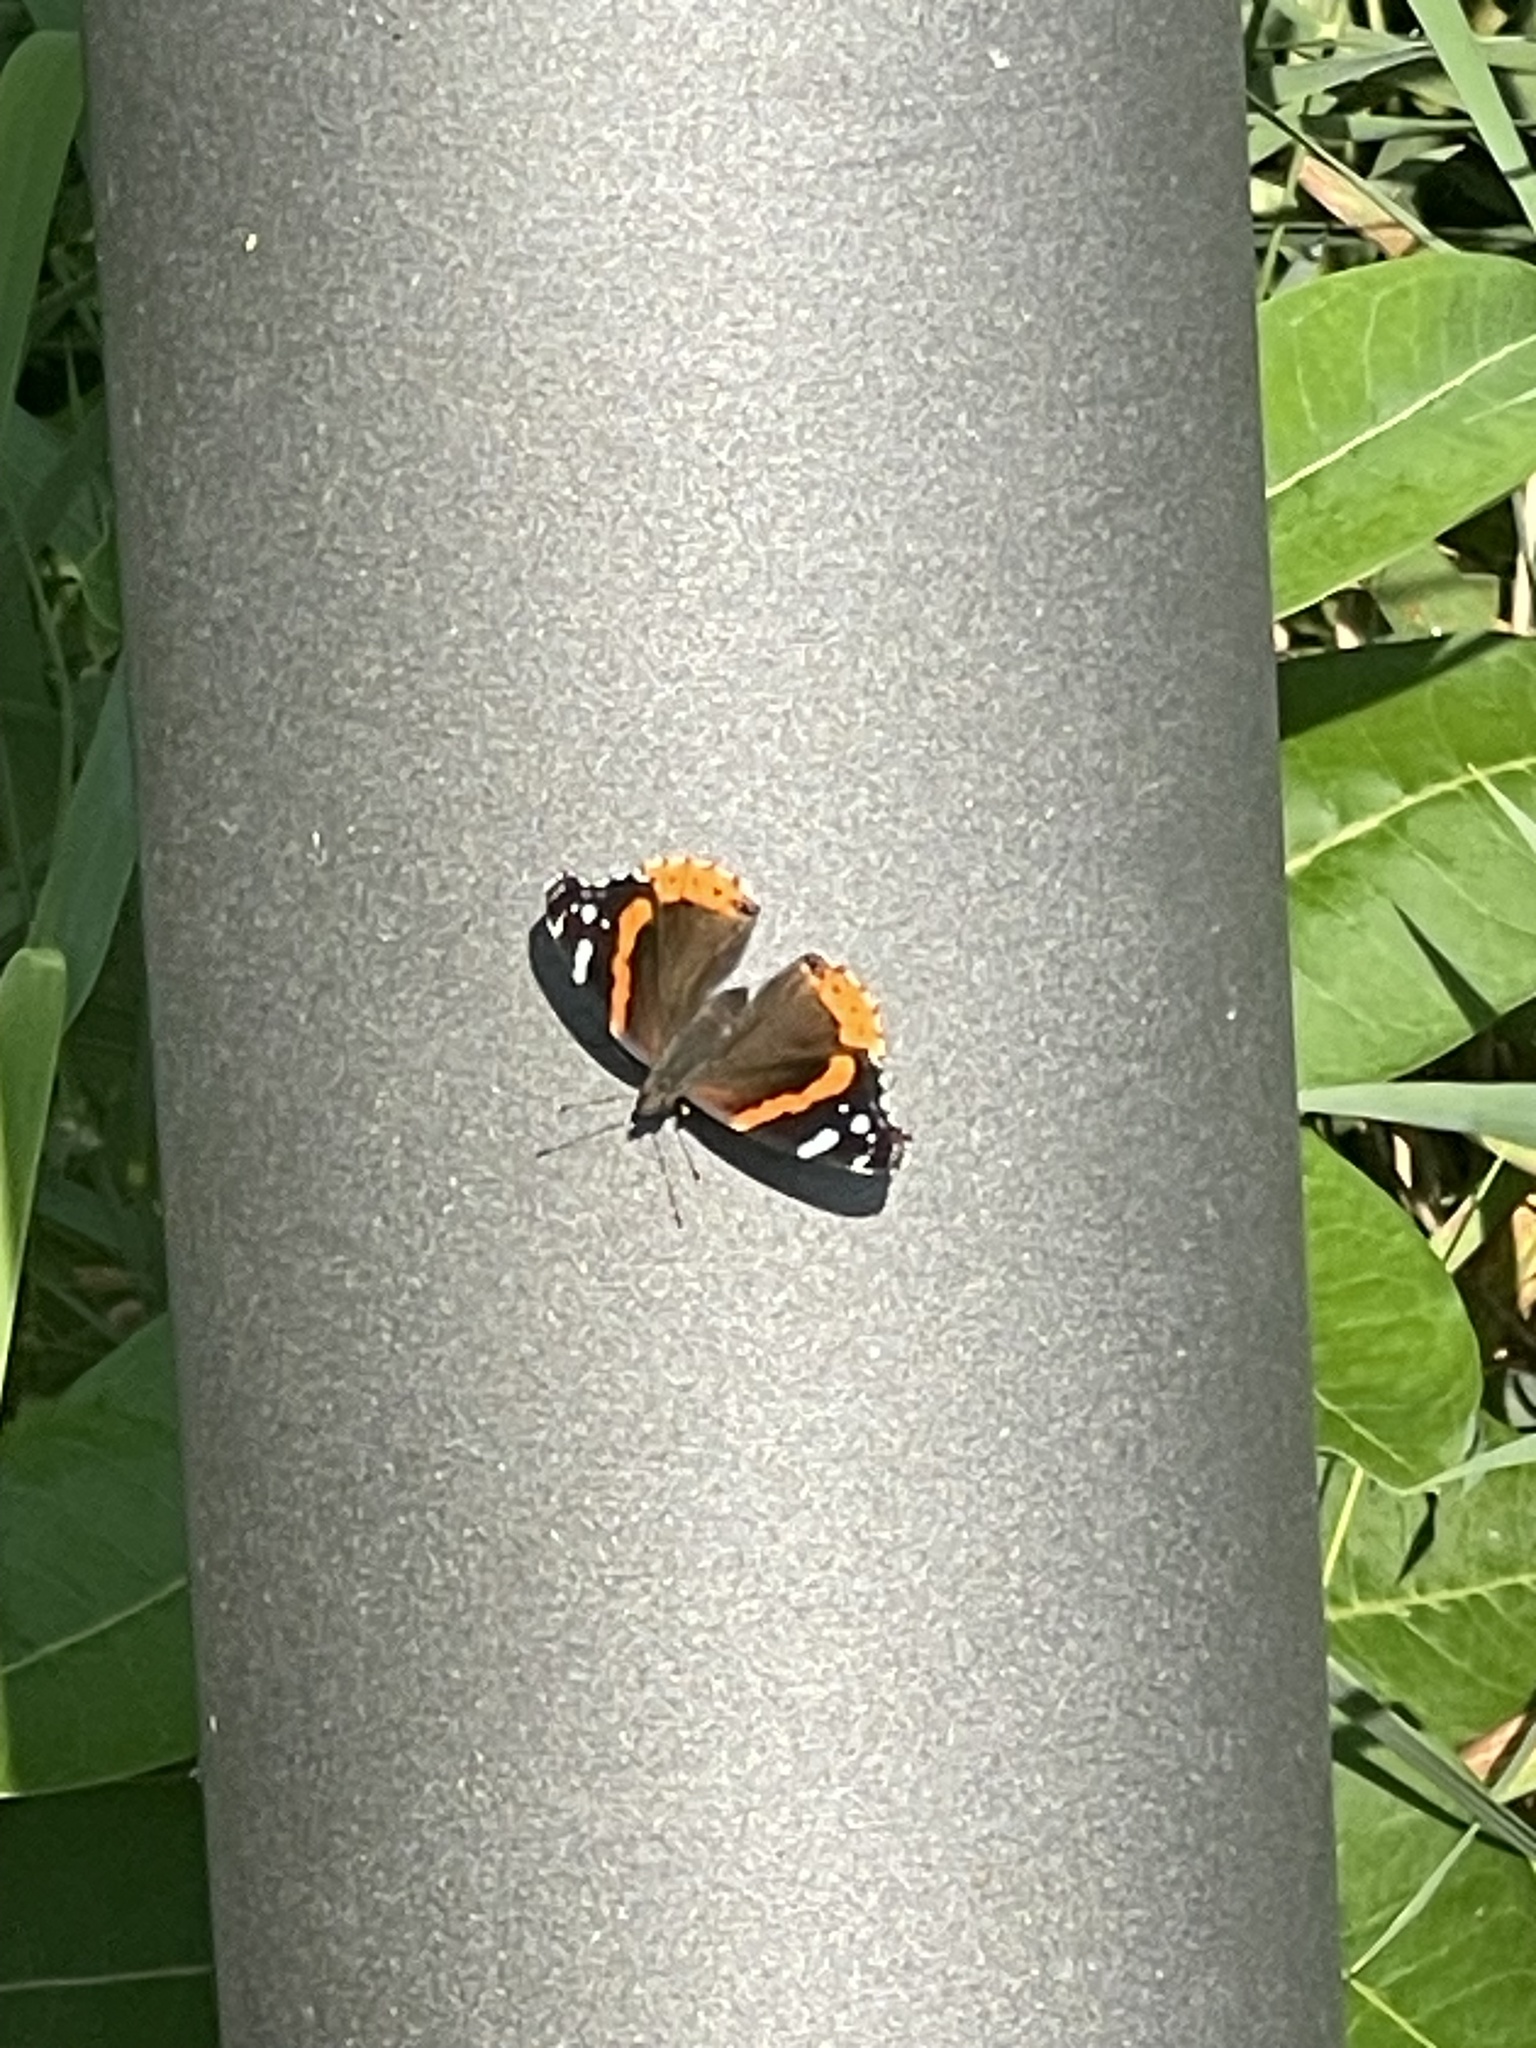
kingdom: Animalia
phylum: Arthropoda
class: Insecta
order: Lepidoptera
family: Nymphalidae
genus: Vanessa
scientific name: Vanessa atalanta
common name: Red admiral
